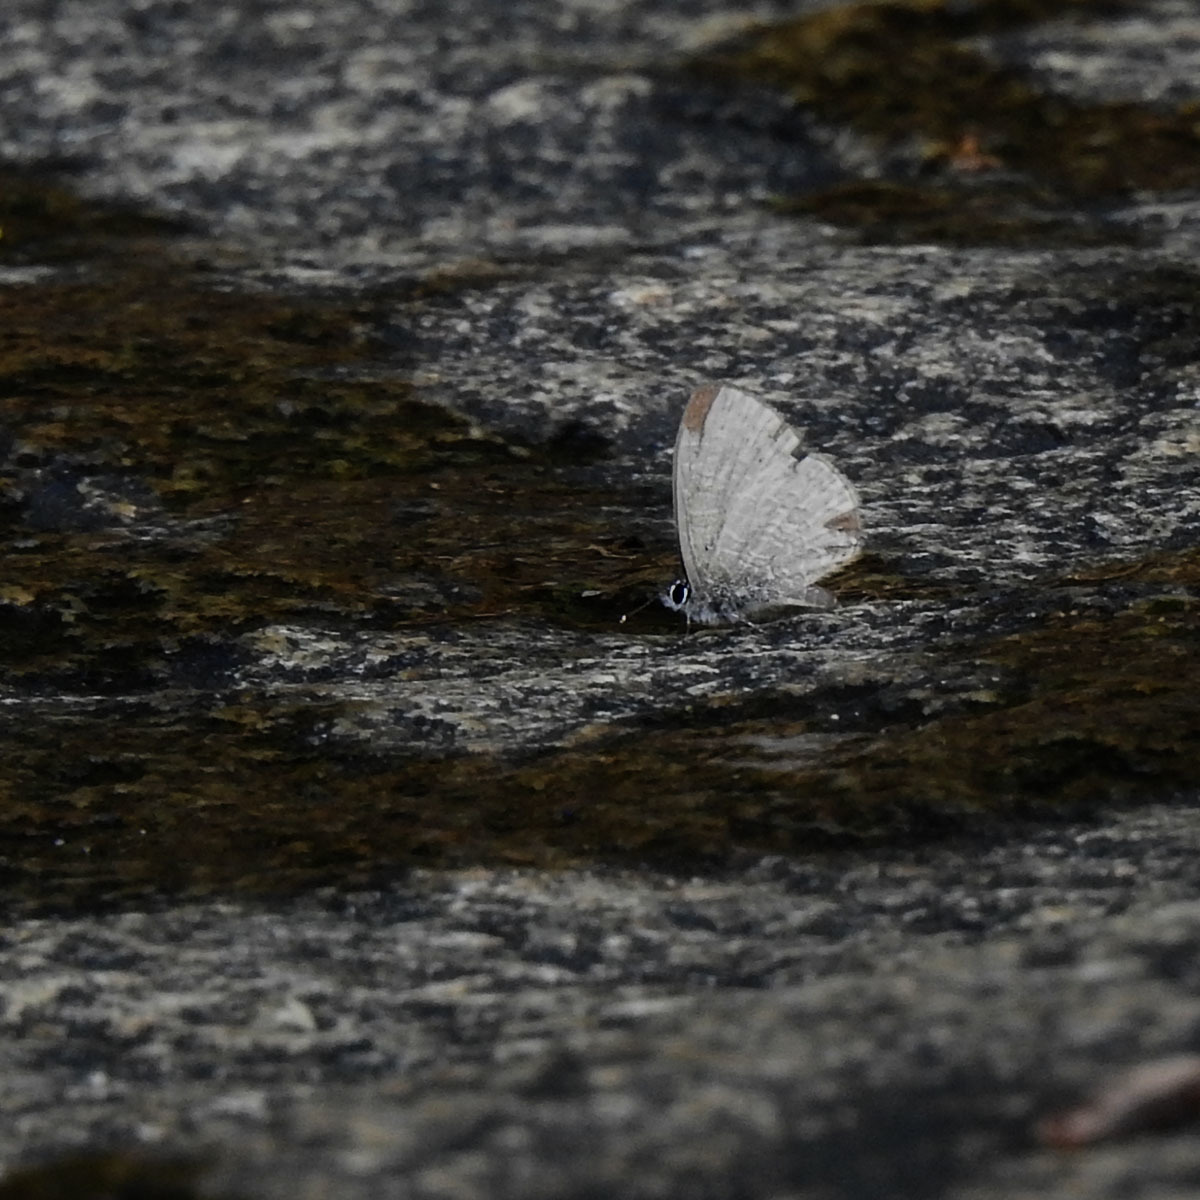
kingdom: Animalia
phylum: Arthropoda
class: Insecta
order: Lepidoptera
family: Lycaenidae
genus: Prosotas
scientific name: Prosotas dubiosa
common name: Tailless lineblue
